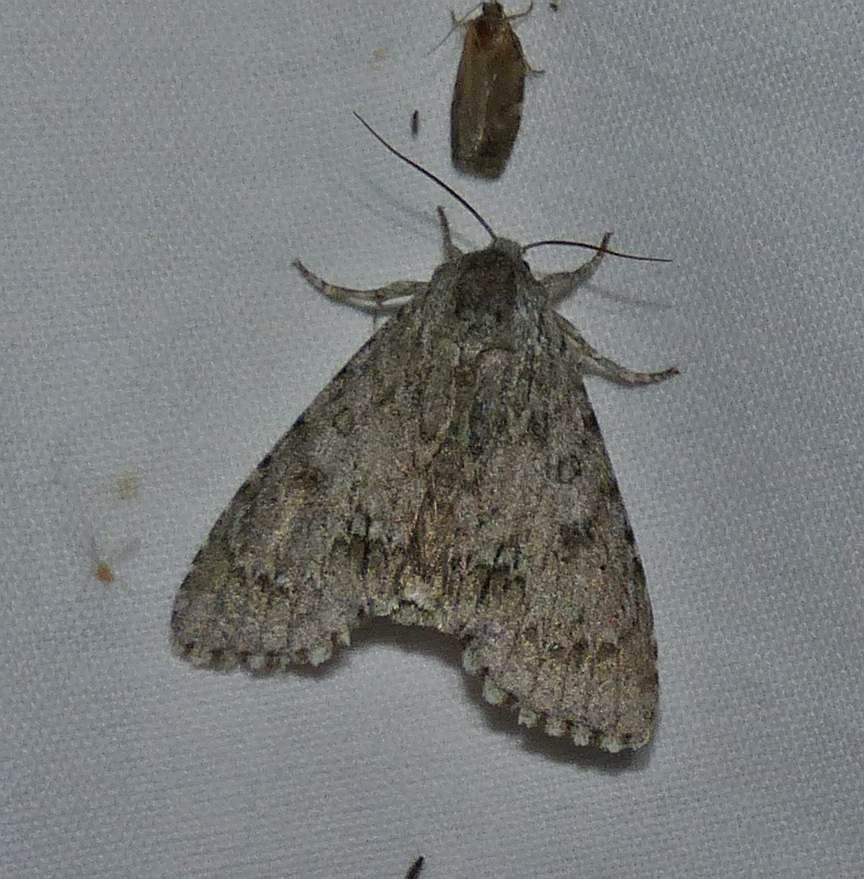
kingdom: Animalia
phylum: Arthropoda
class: Insecta
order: Lepidoptera
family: Noctuidae
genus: Acronicta
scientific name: Acronicta americana
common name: American dagger
